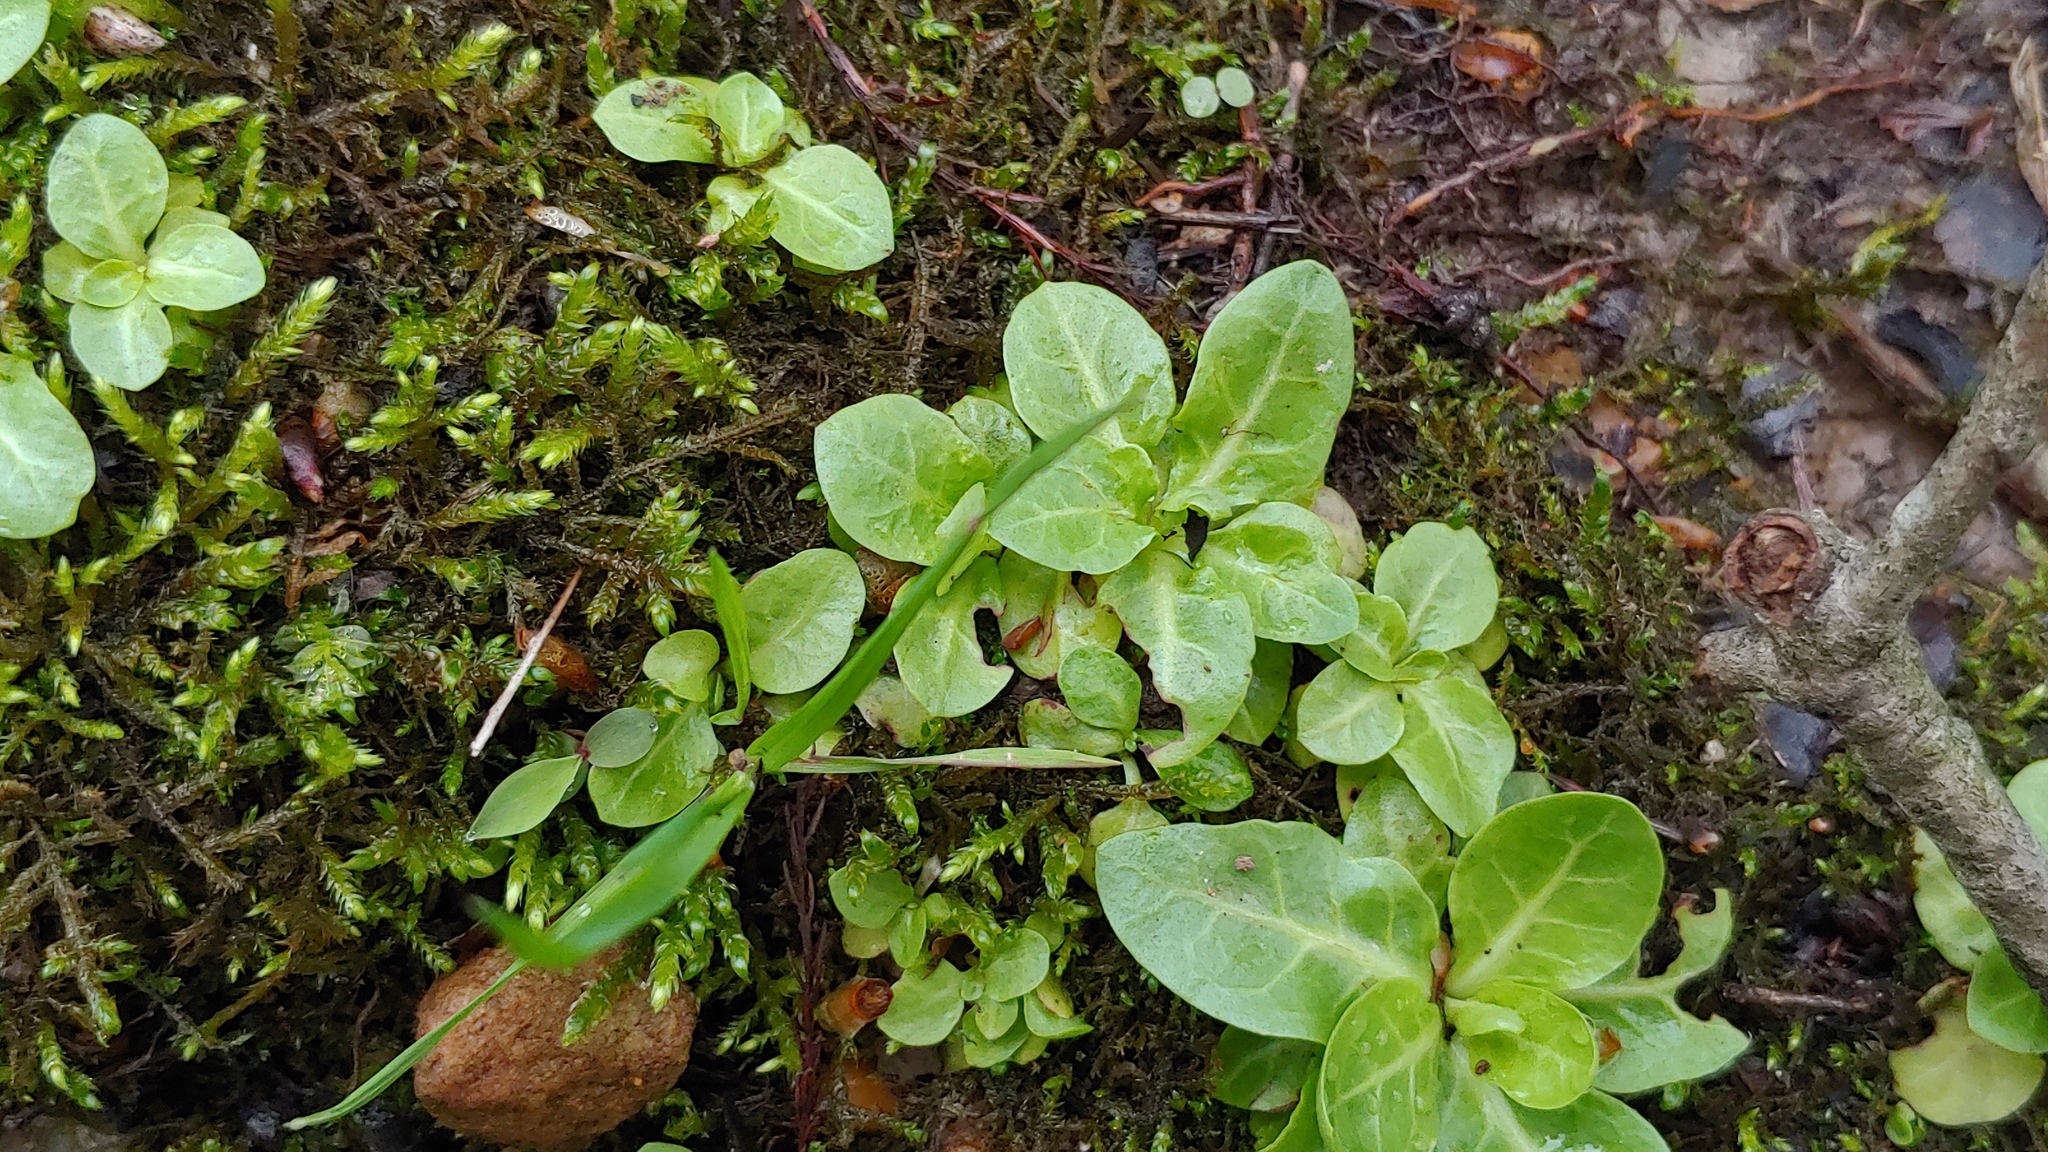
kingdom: Plantae
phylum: Tracheophyta
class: Magnoliopsida
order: Ericales
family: Primulaceae
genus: Samolus
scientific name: Samolus parviflorus
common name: False water pimpernel
